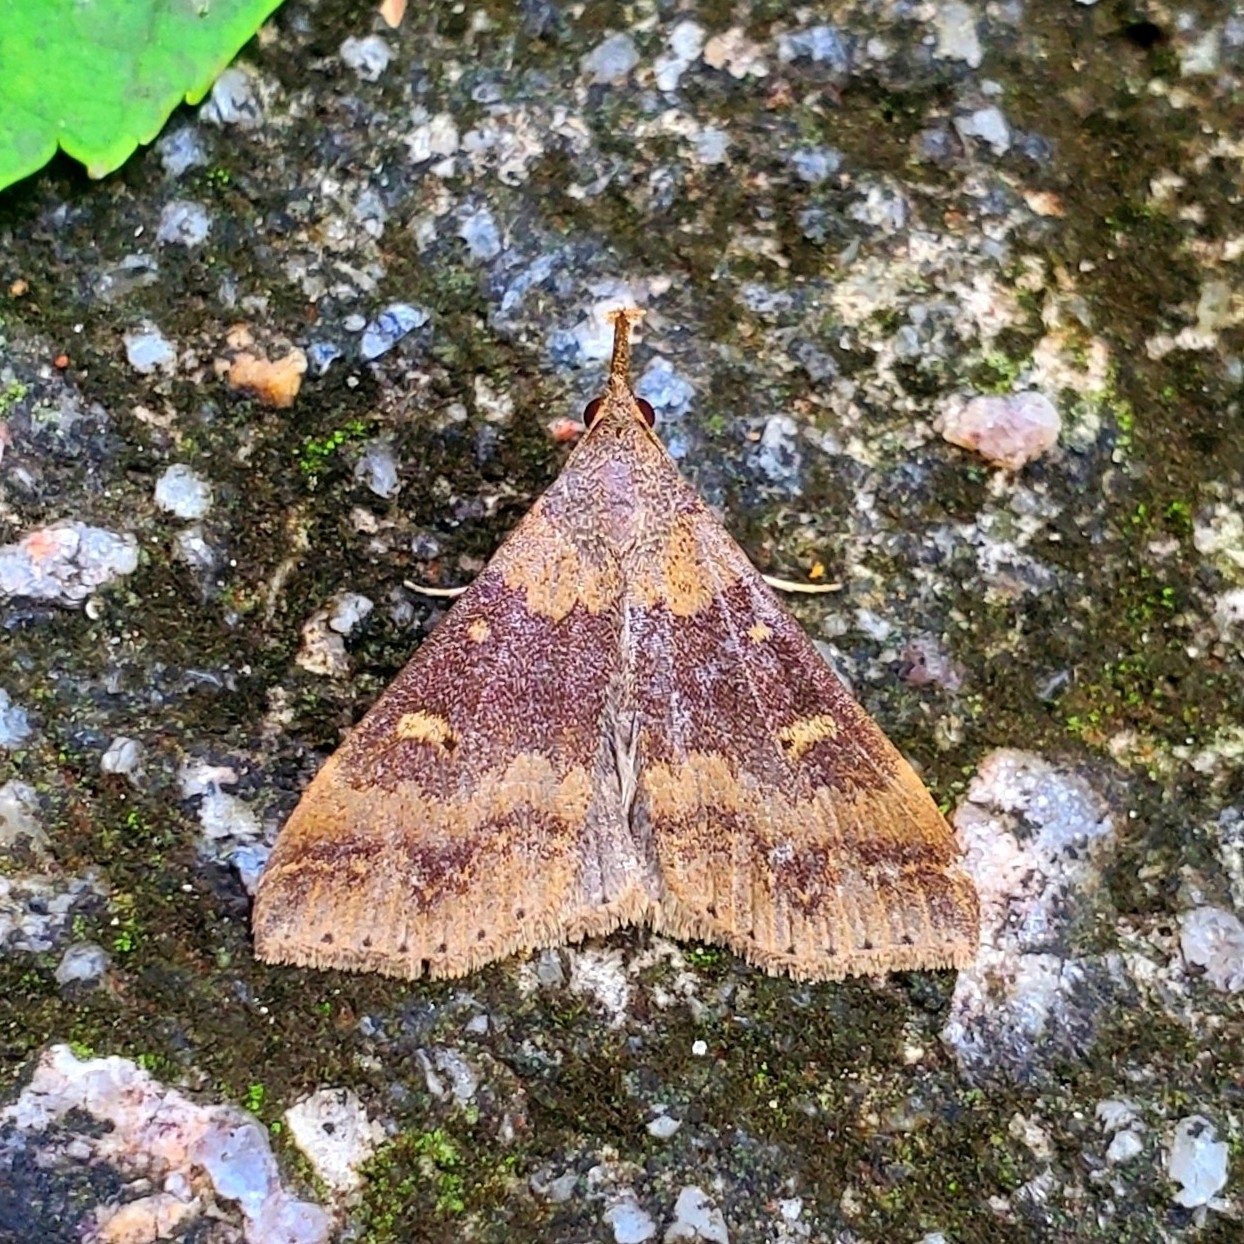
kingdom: Animalia
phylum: Arthropoda
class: Insecta
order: Lepidoptera
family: Erebidae
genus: Renia
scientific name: Renia discoloralis
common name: Discolored renia moth
